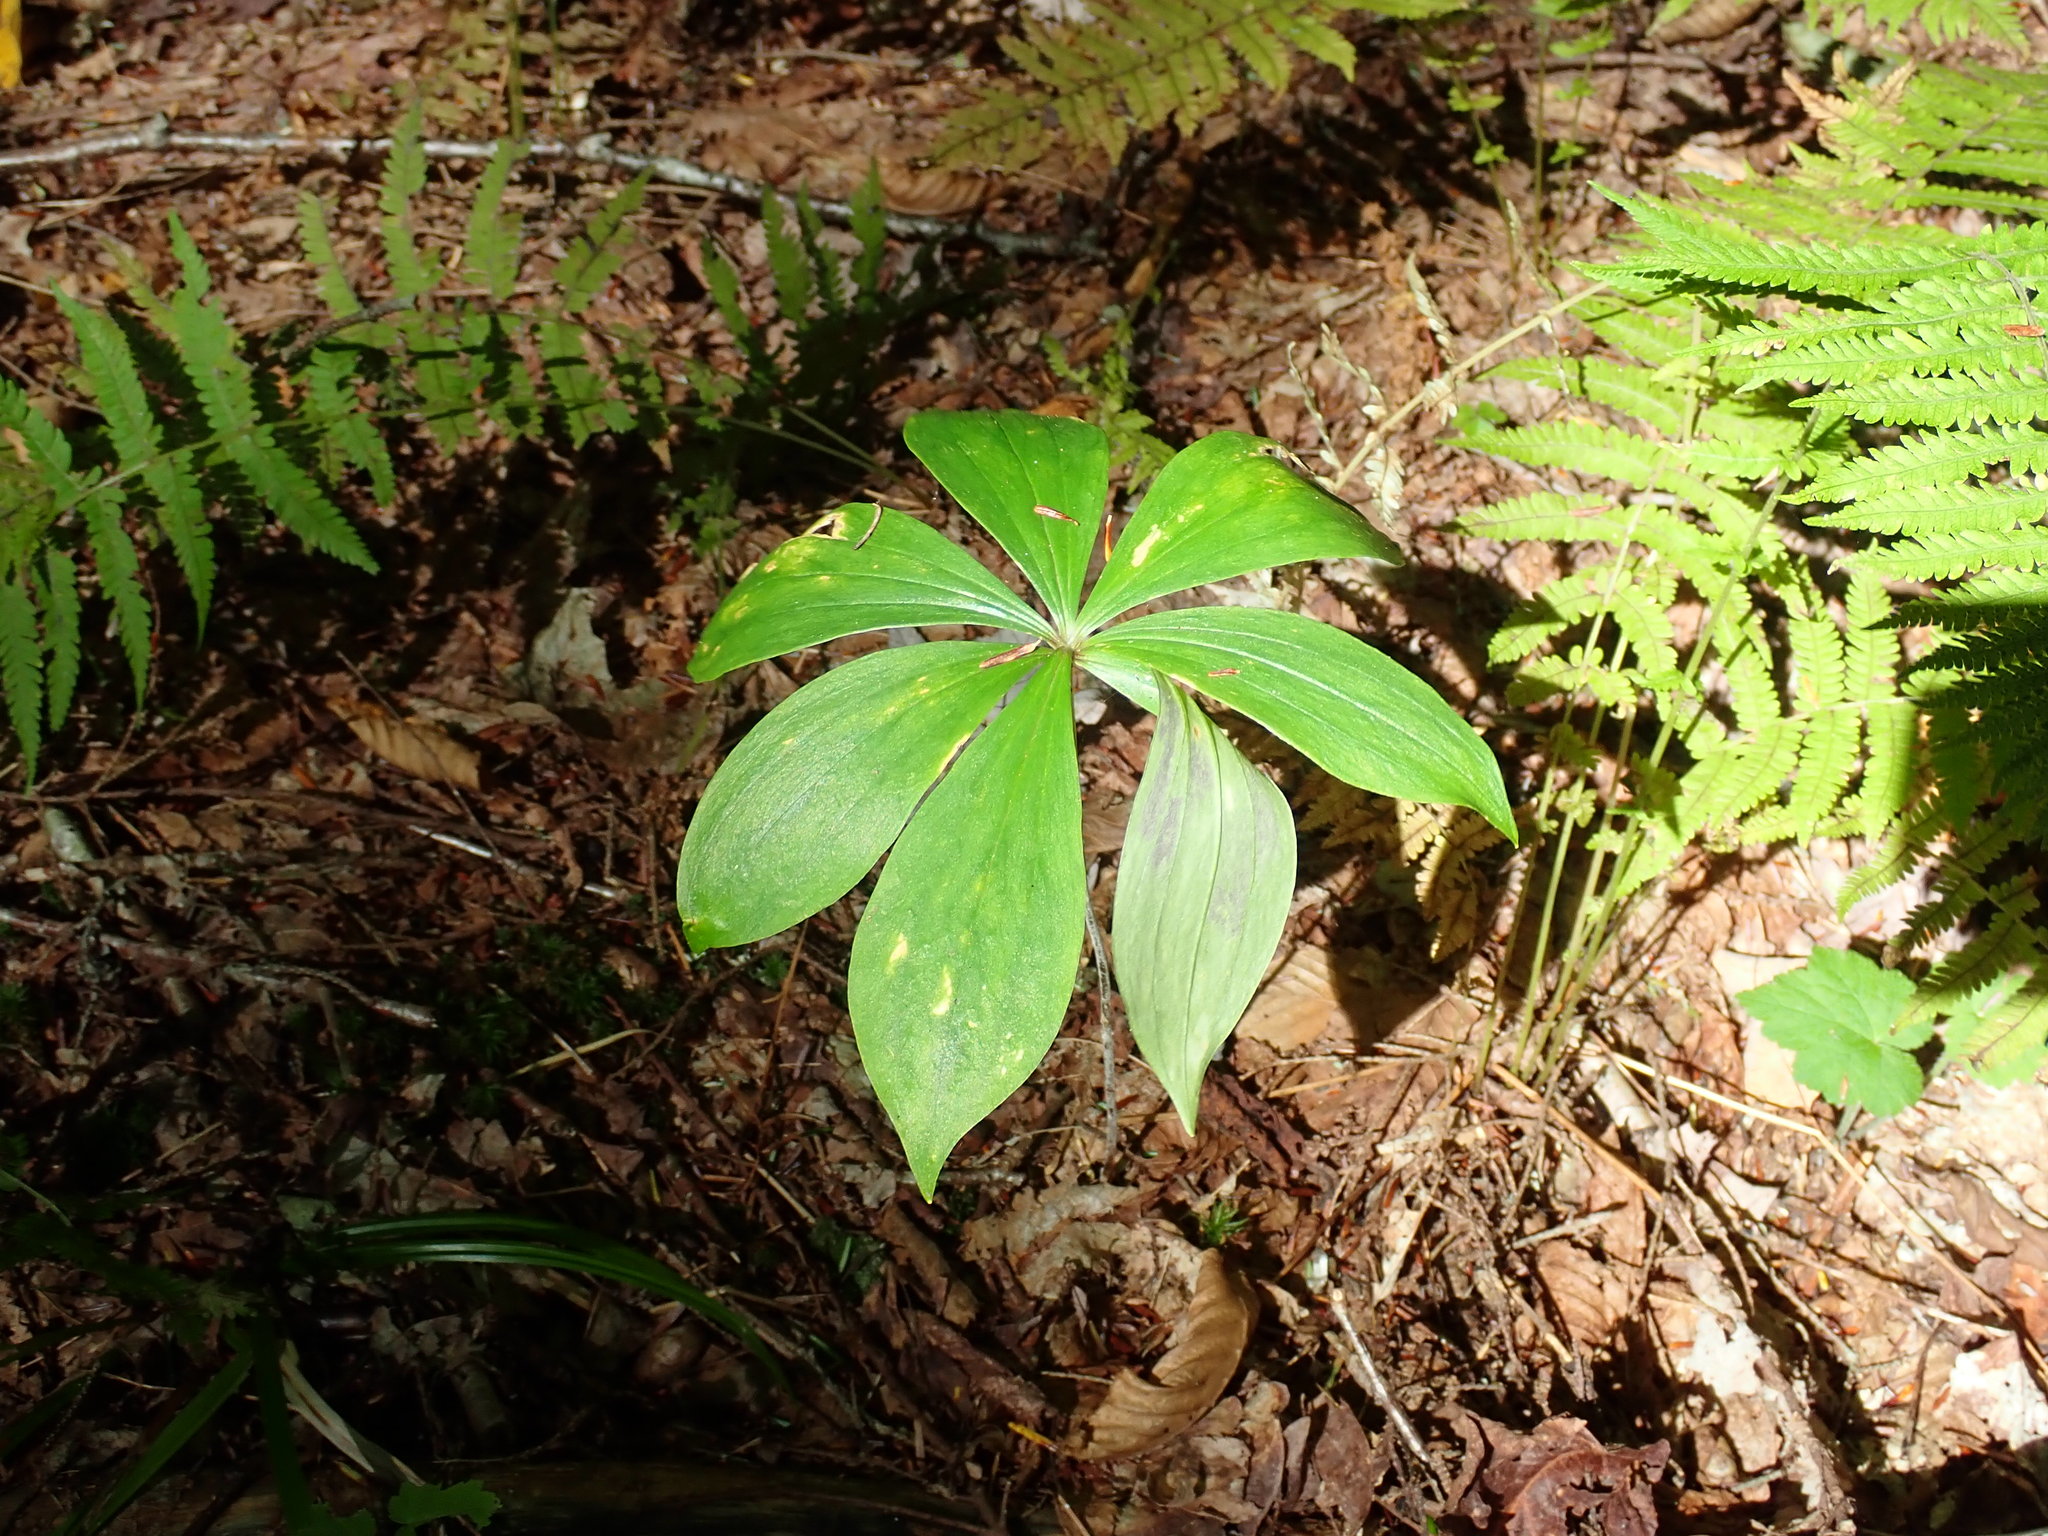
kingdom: Plantae
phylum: Tracheophyta
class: Liliopsida
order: Liliales
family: Liliaceae
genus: Medeola
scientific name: Medeola virginiana
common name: Indian cucumber-root
